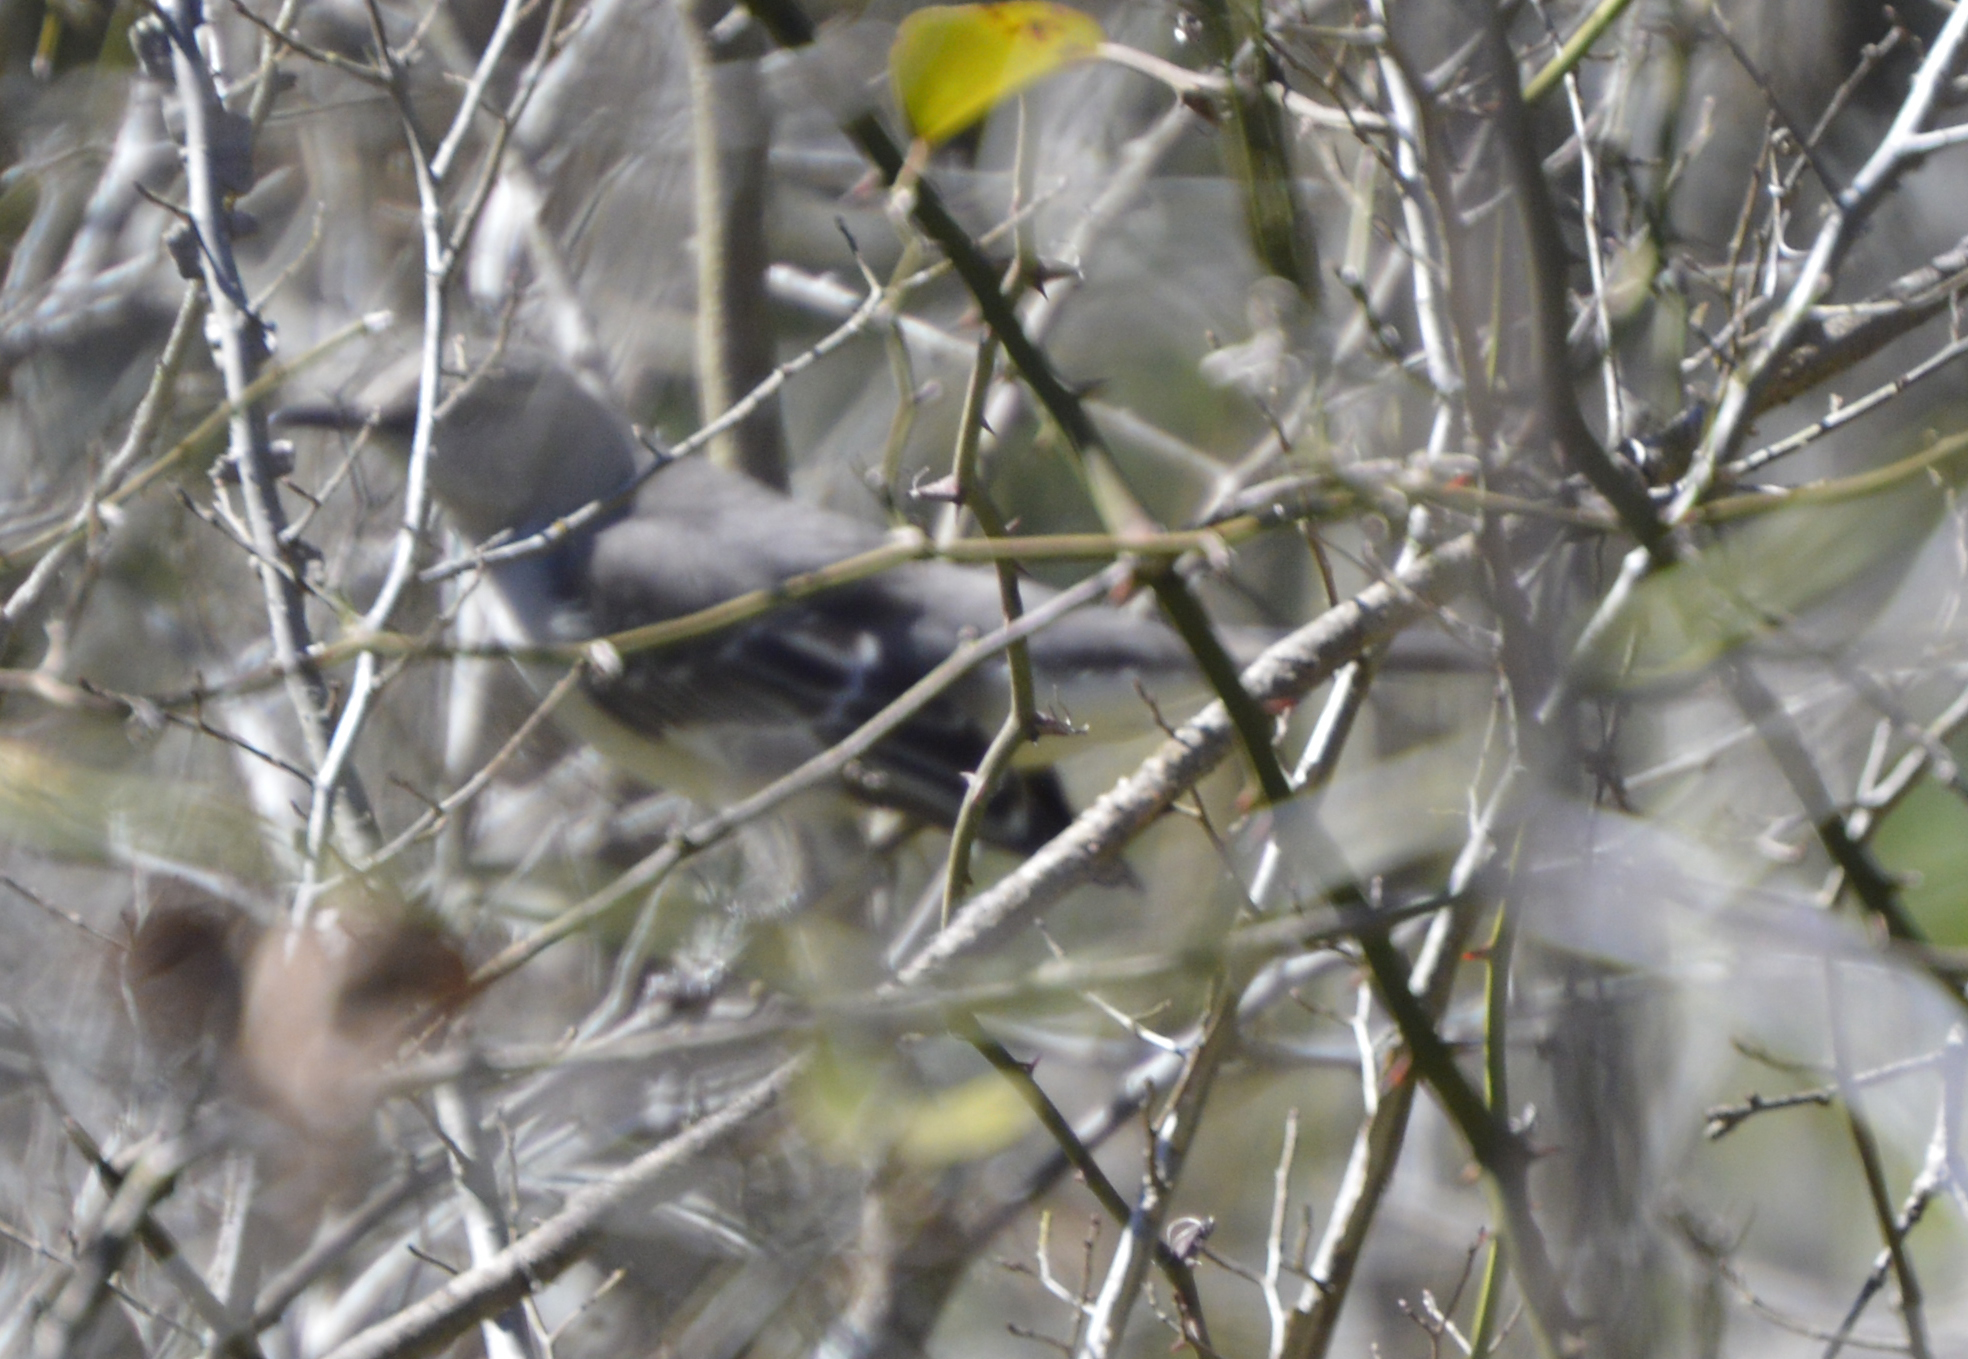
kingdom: Animalia
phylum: Chordata
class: Aves
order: Passeriformes
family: Mimidae
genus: Mimus
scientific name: Mimus polyglottos
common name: Northern mockingbird
